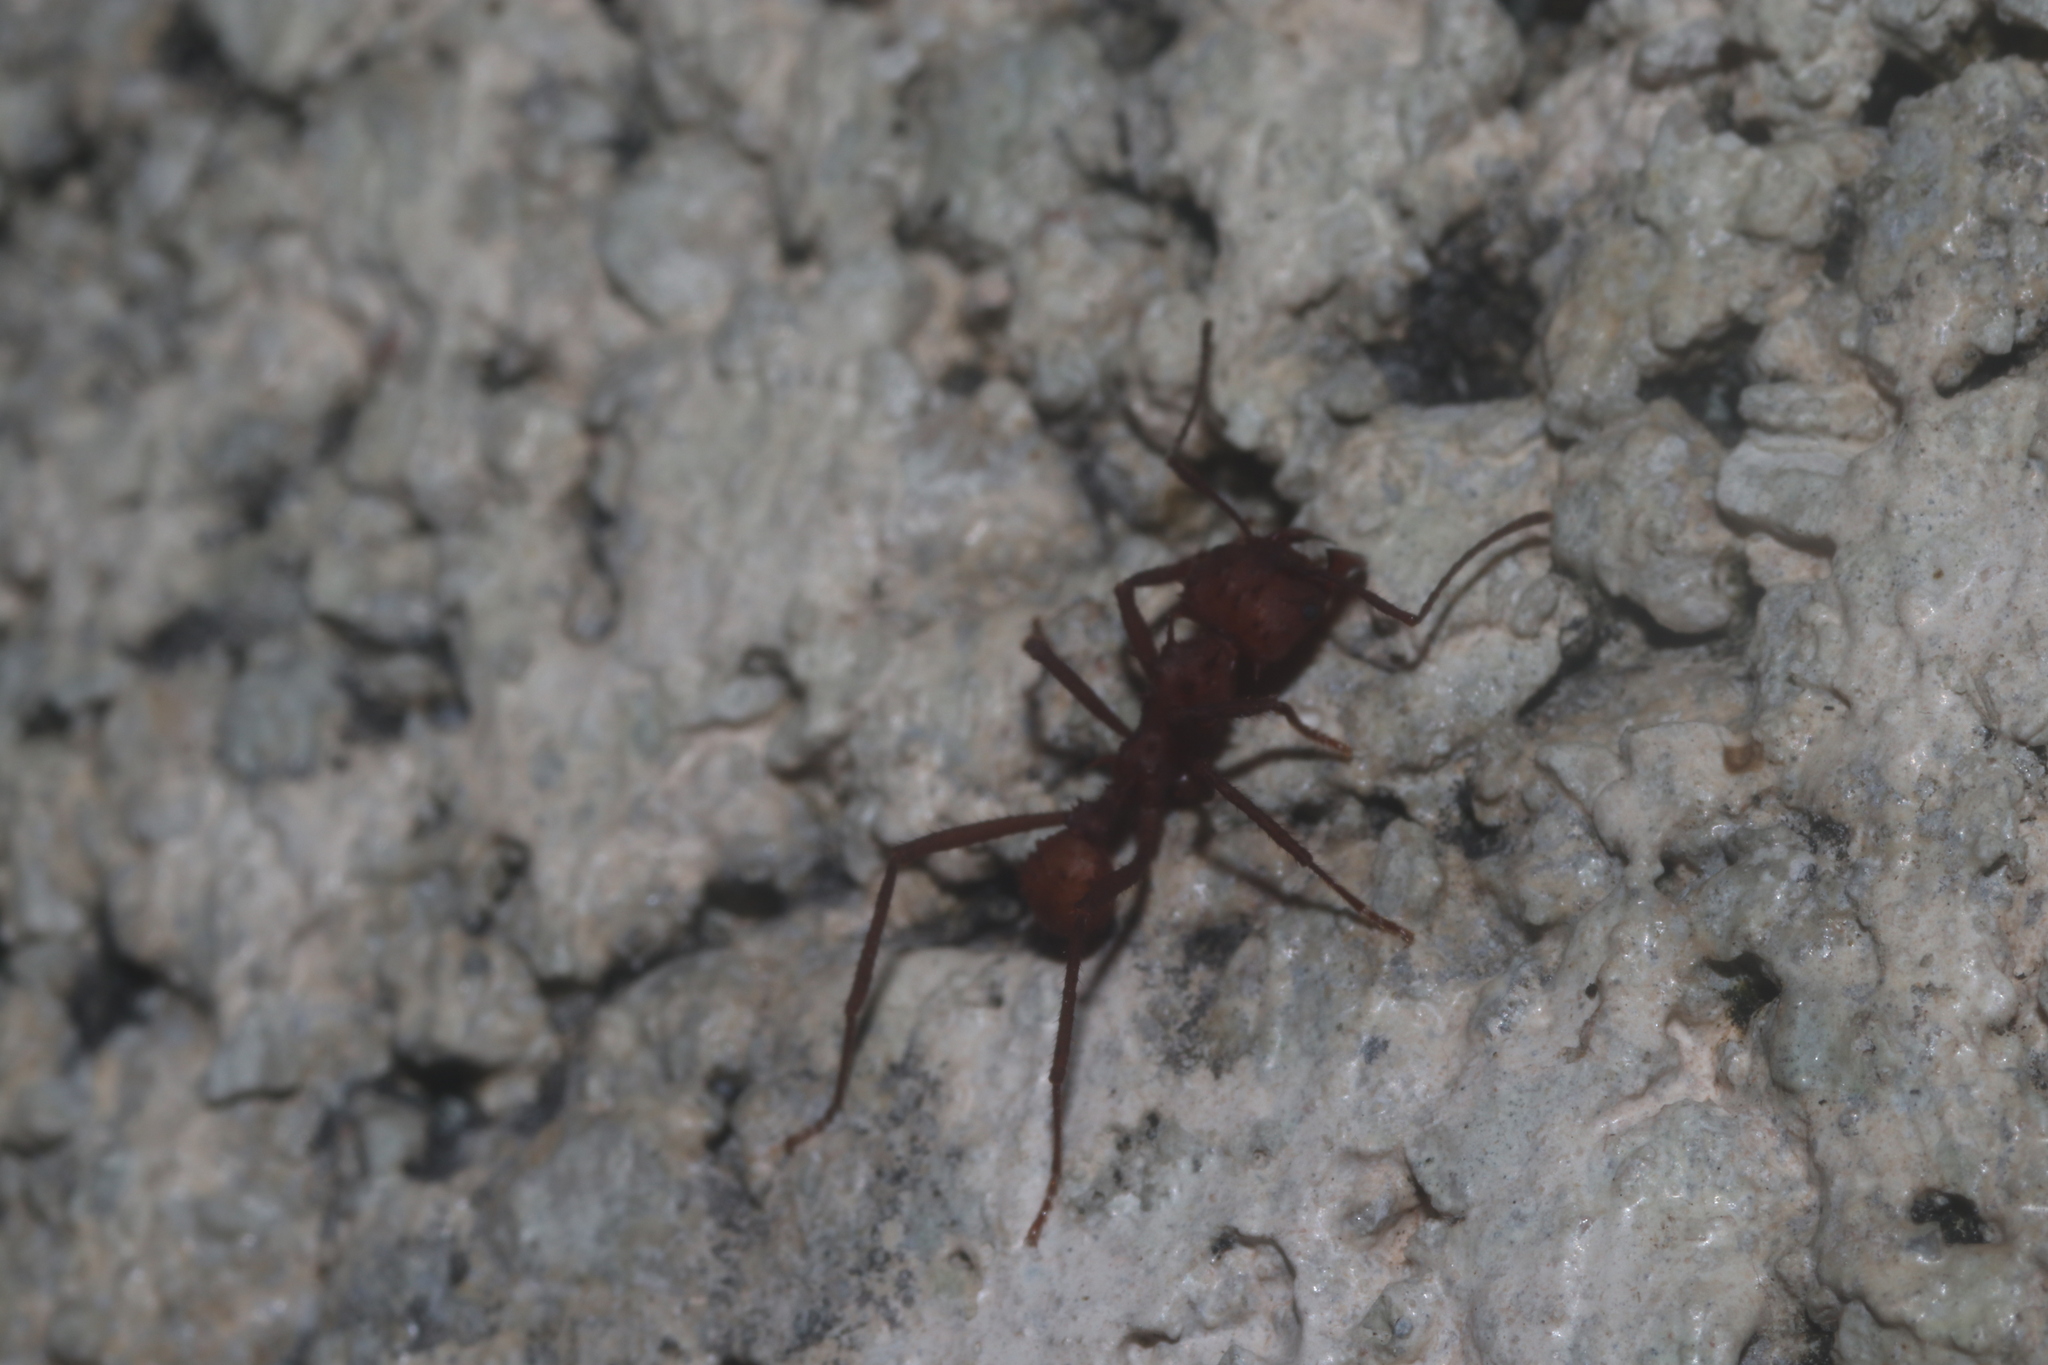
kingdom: Animalia
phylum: Arthropoda
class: Insecta
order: Hymenoptera
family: Formicidae
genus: Acromyrmex
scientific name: Acromyrmex octospinosus
